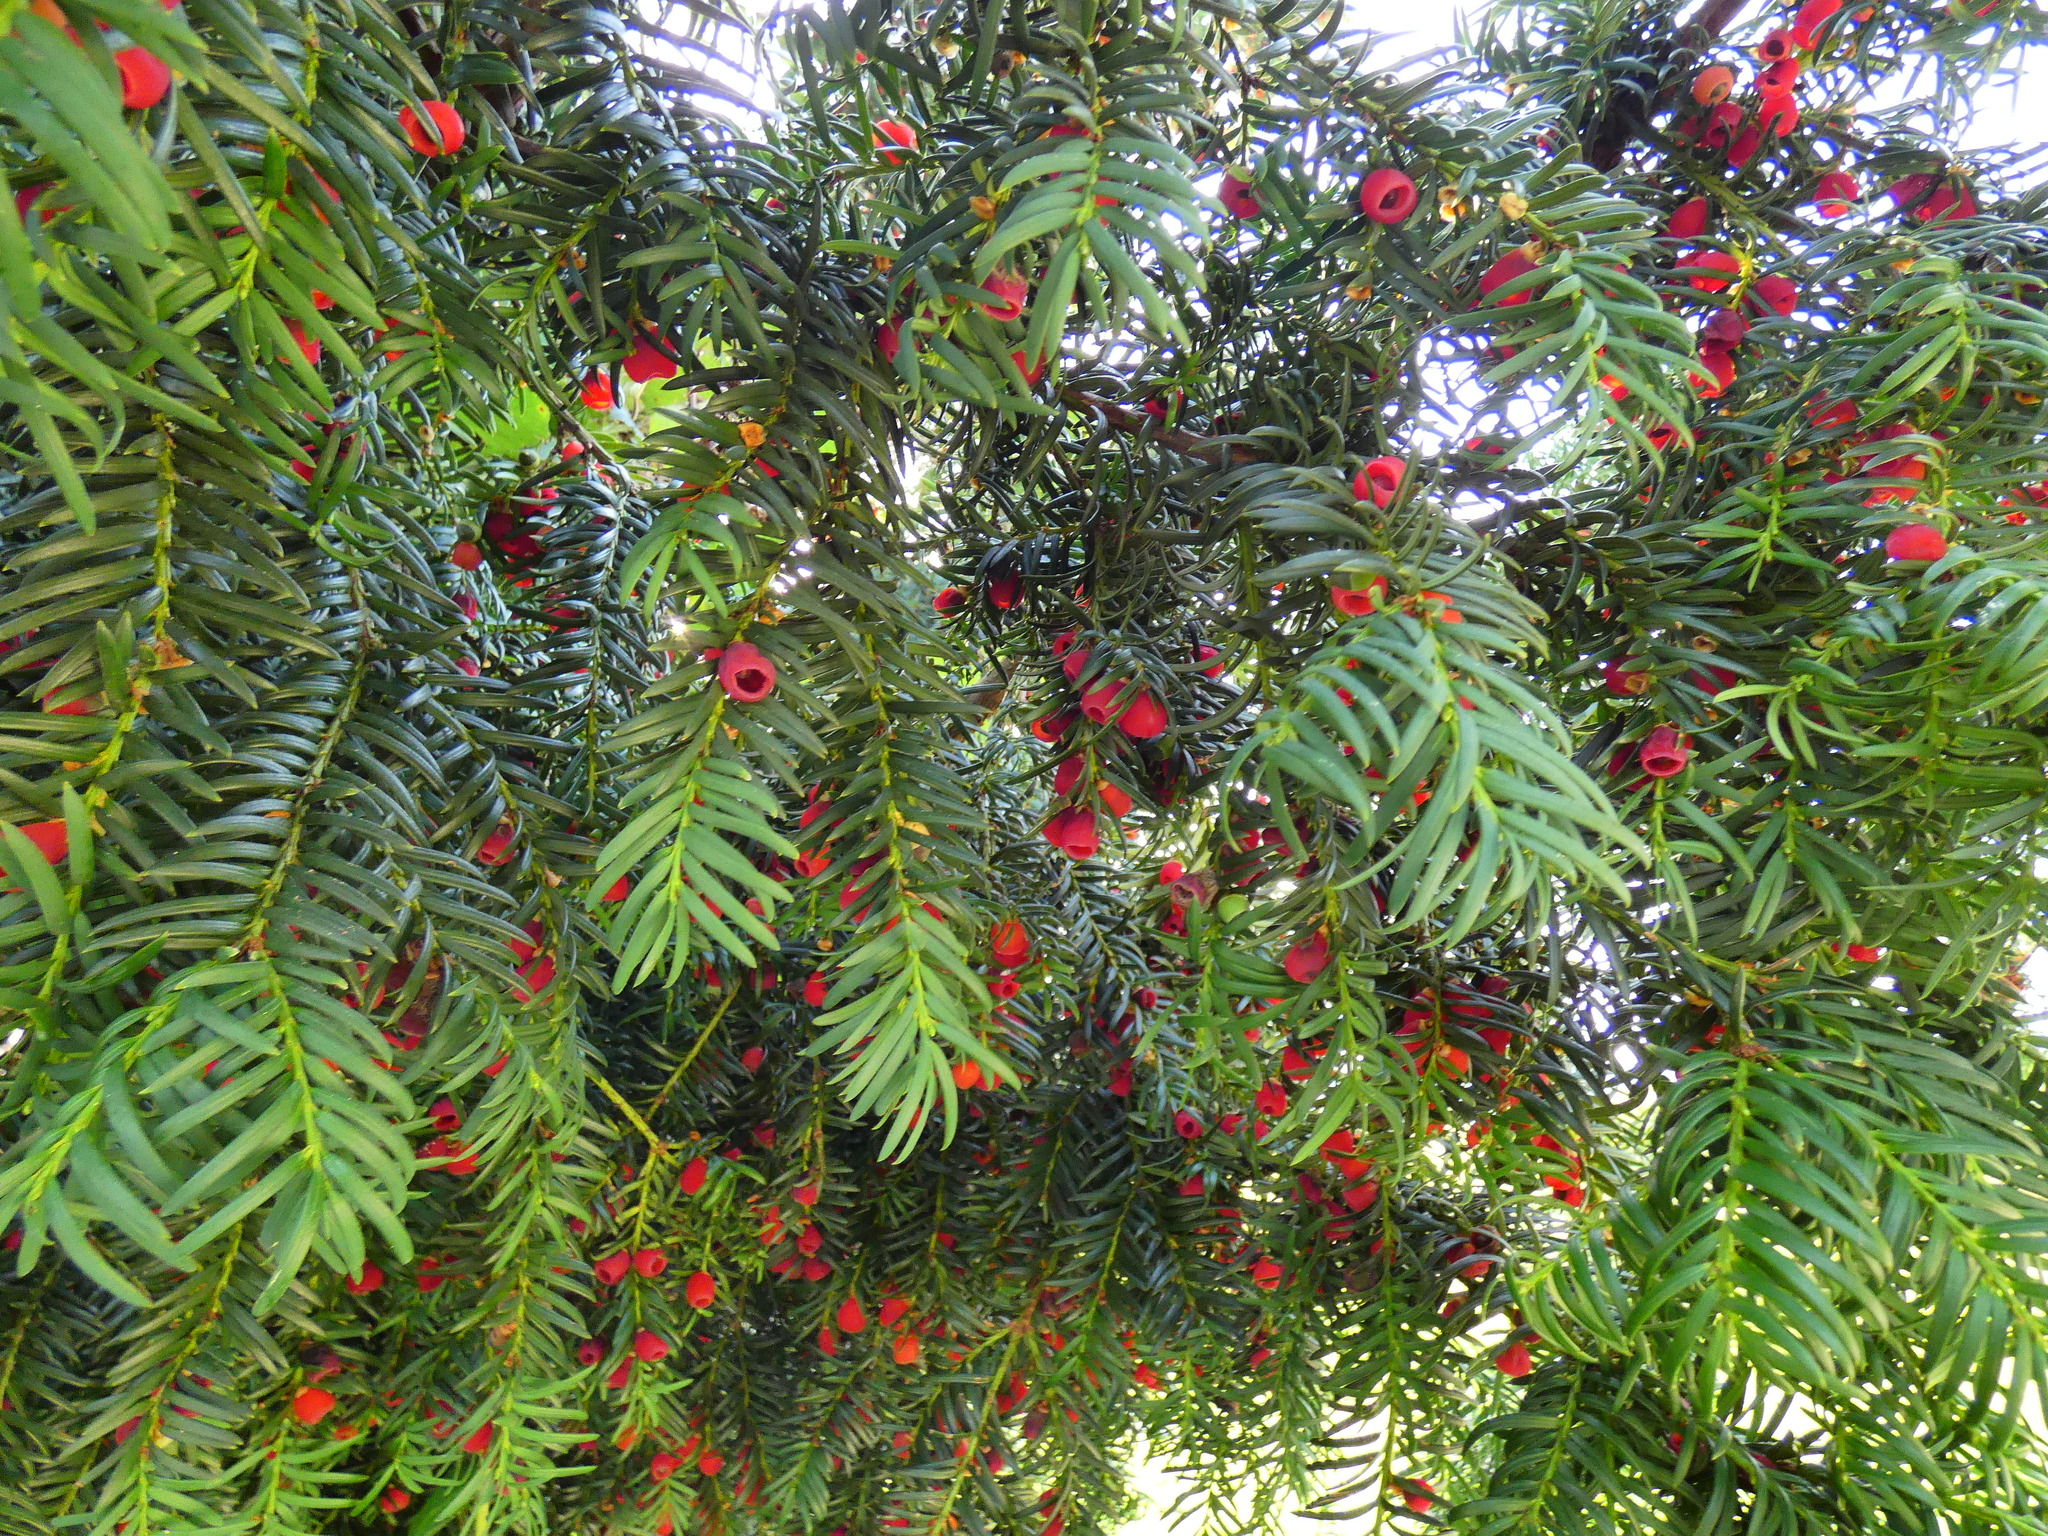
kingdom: Plantae
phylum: Tracheophyta
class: Pinopsida
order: Pinales
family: Taxaceae
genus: Taxus
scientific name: Taxus baccata
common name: Yew
